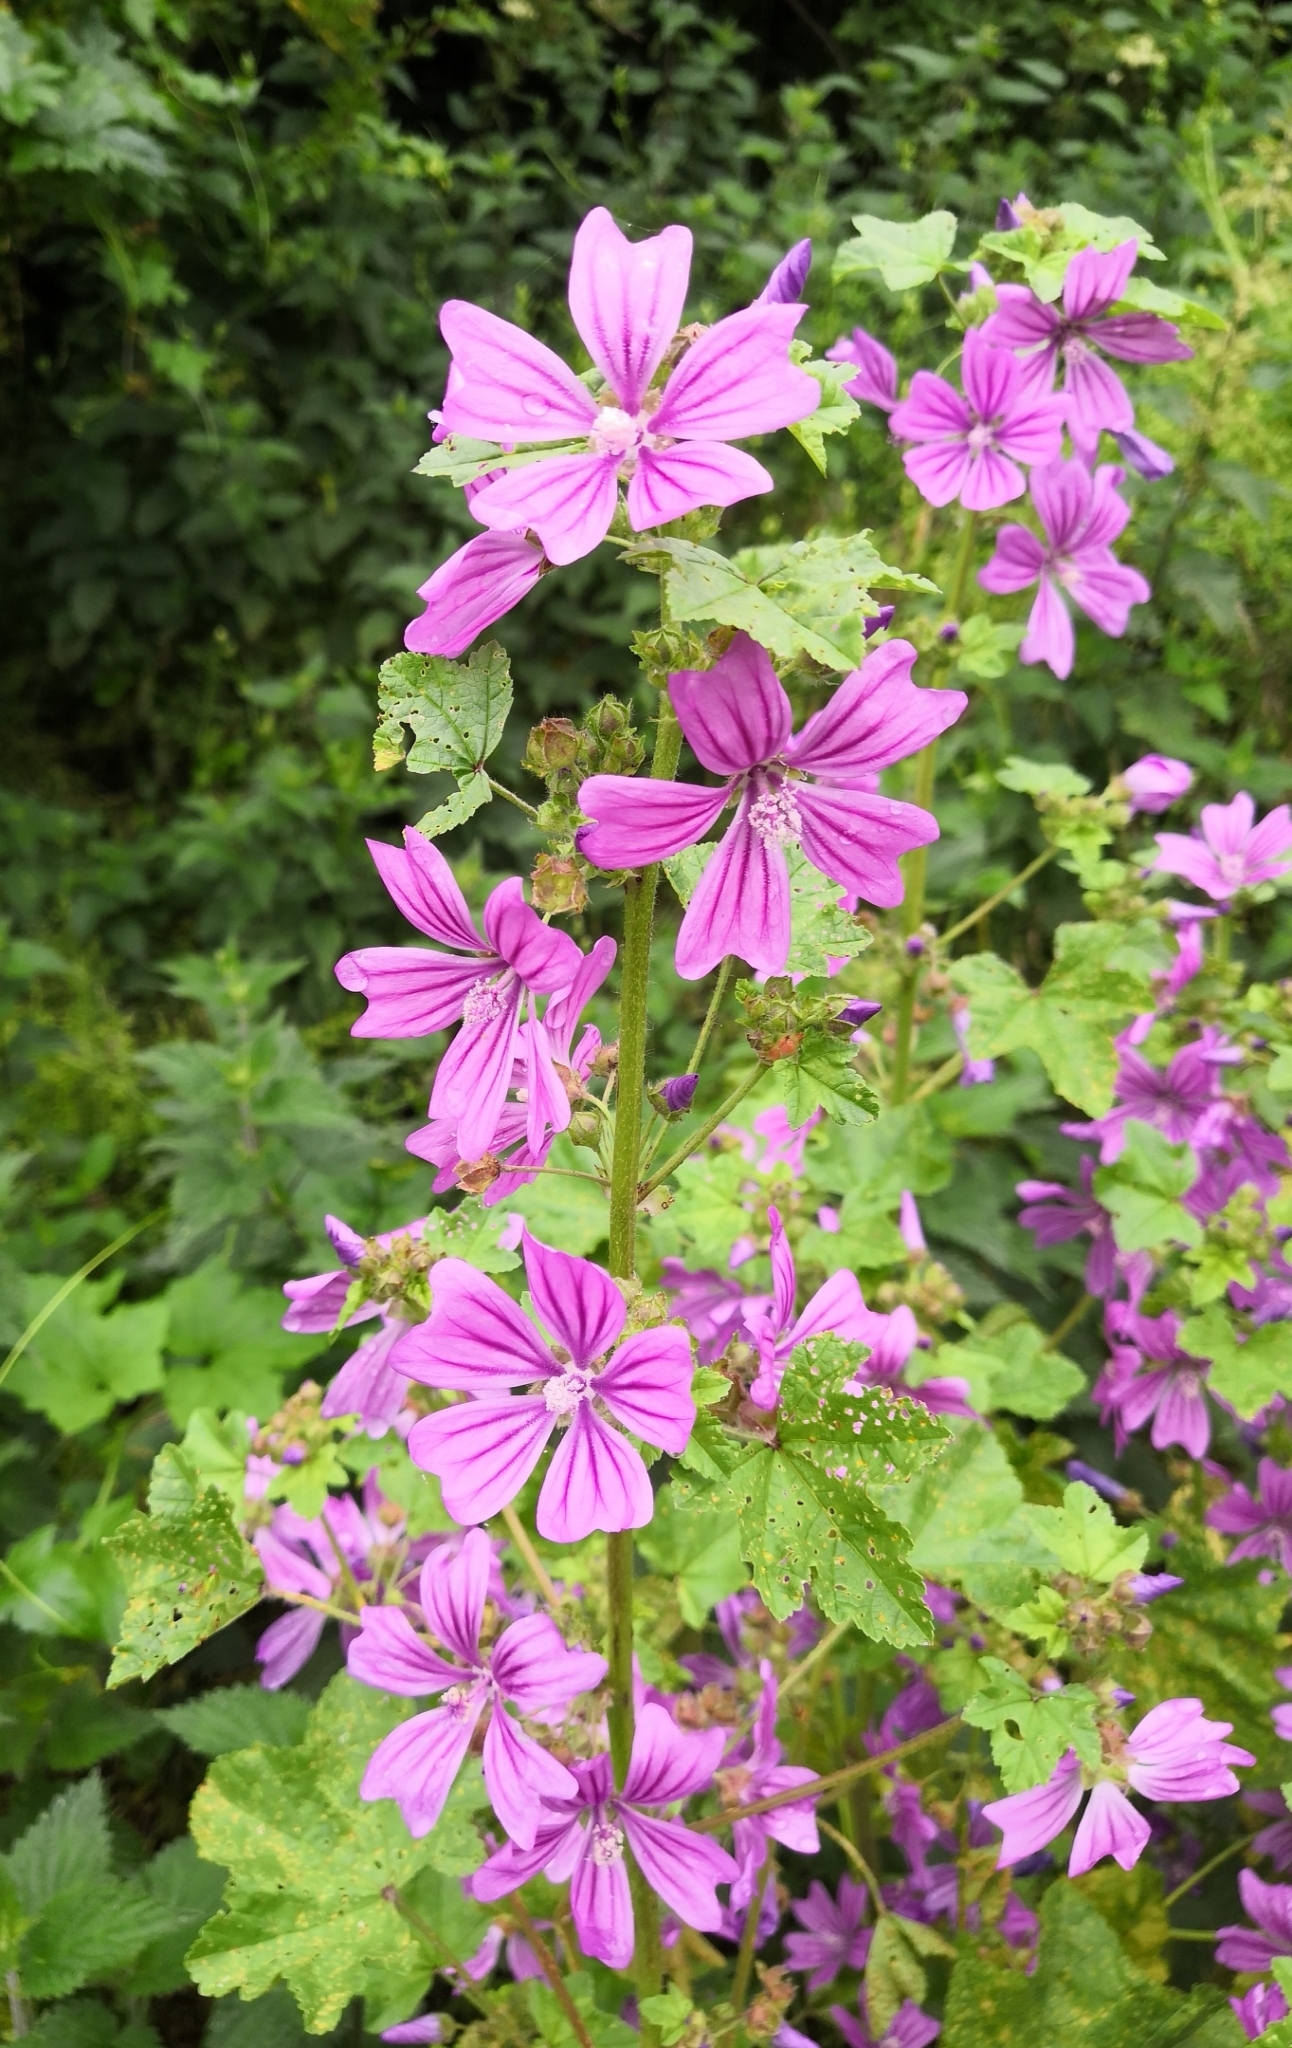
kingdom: Plantae
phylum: Tracheophyta
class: Magnoliopsida
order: Malvales
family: Malvaceae
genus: Malva
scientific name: Malva sylvestris
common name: Common mallow
